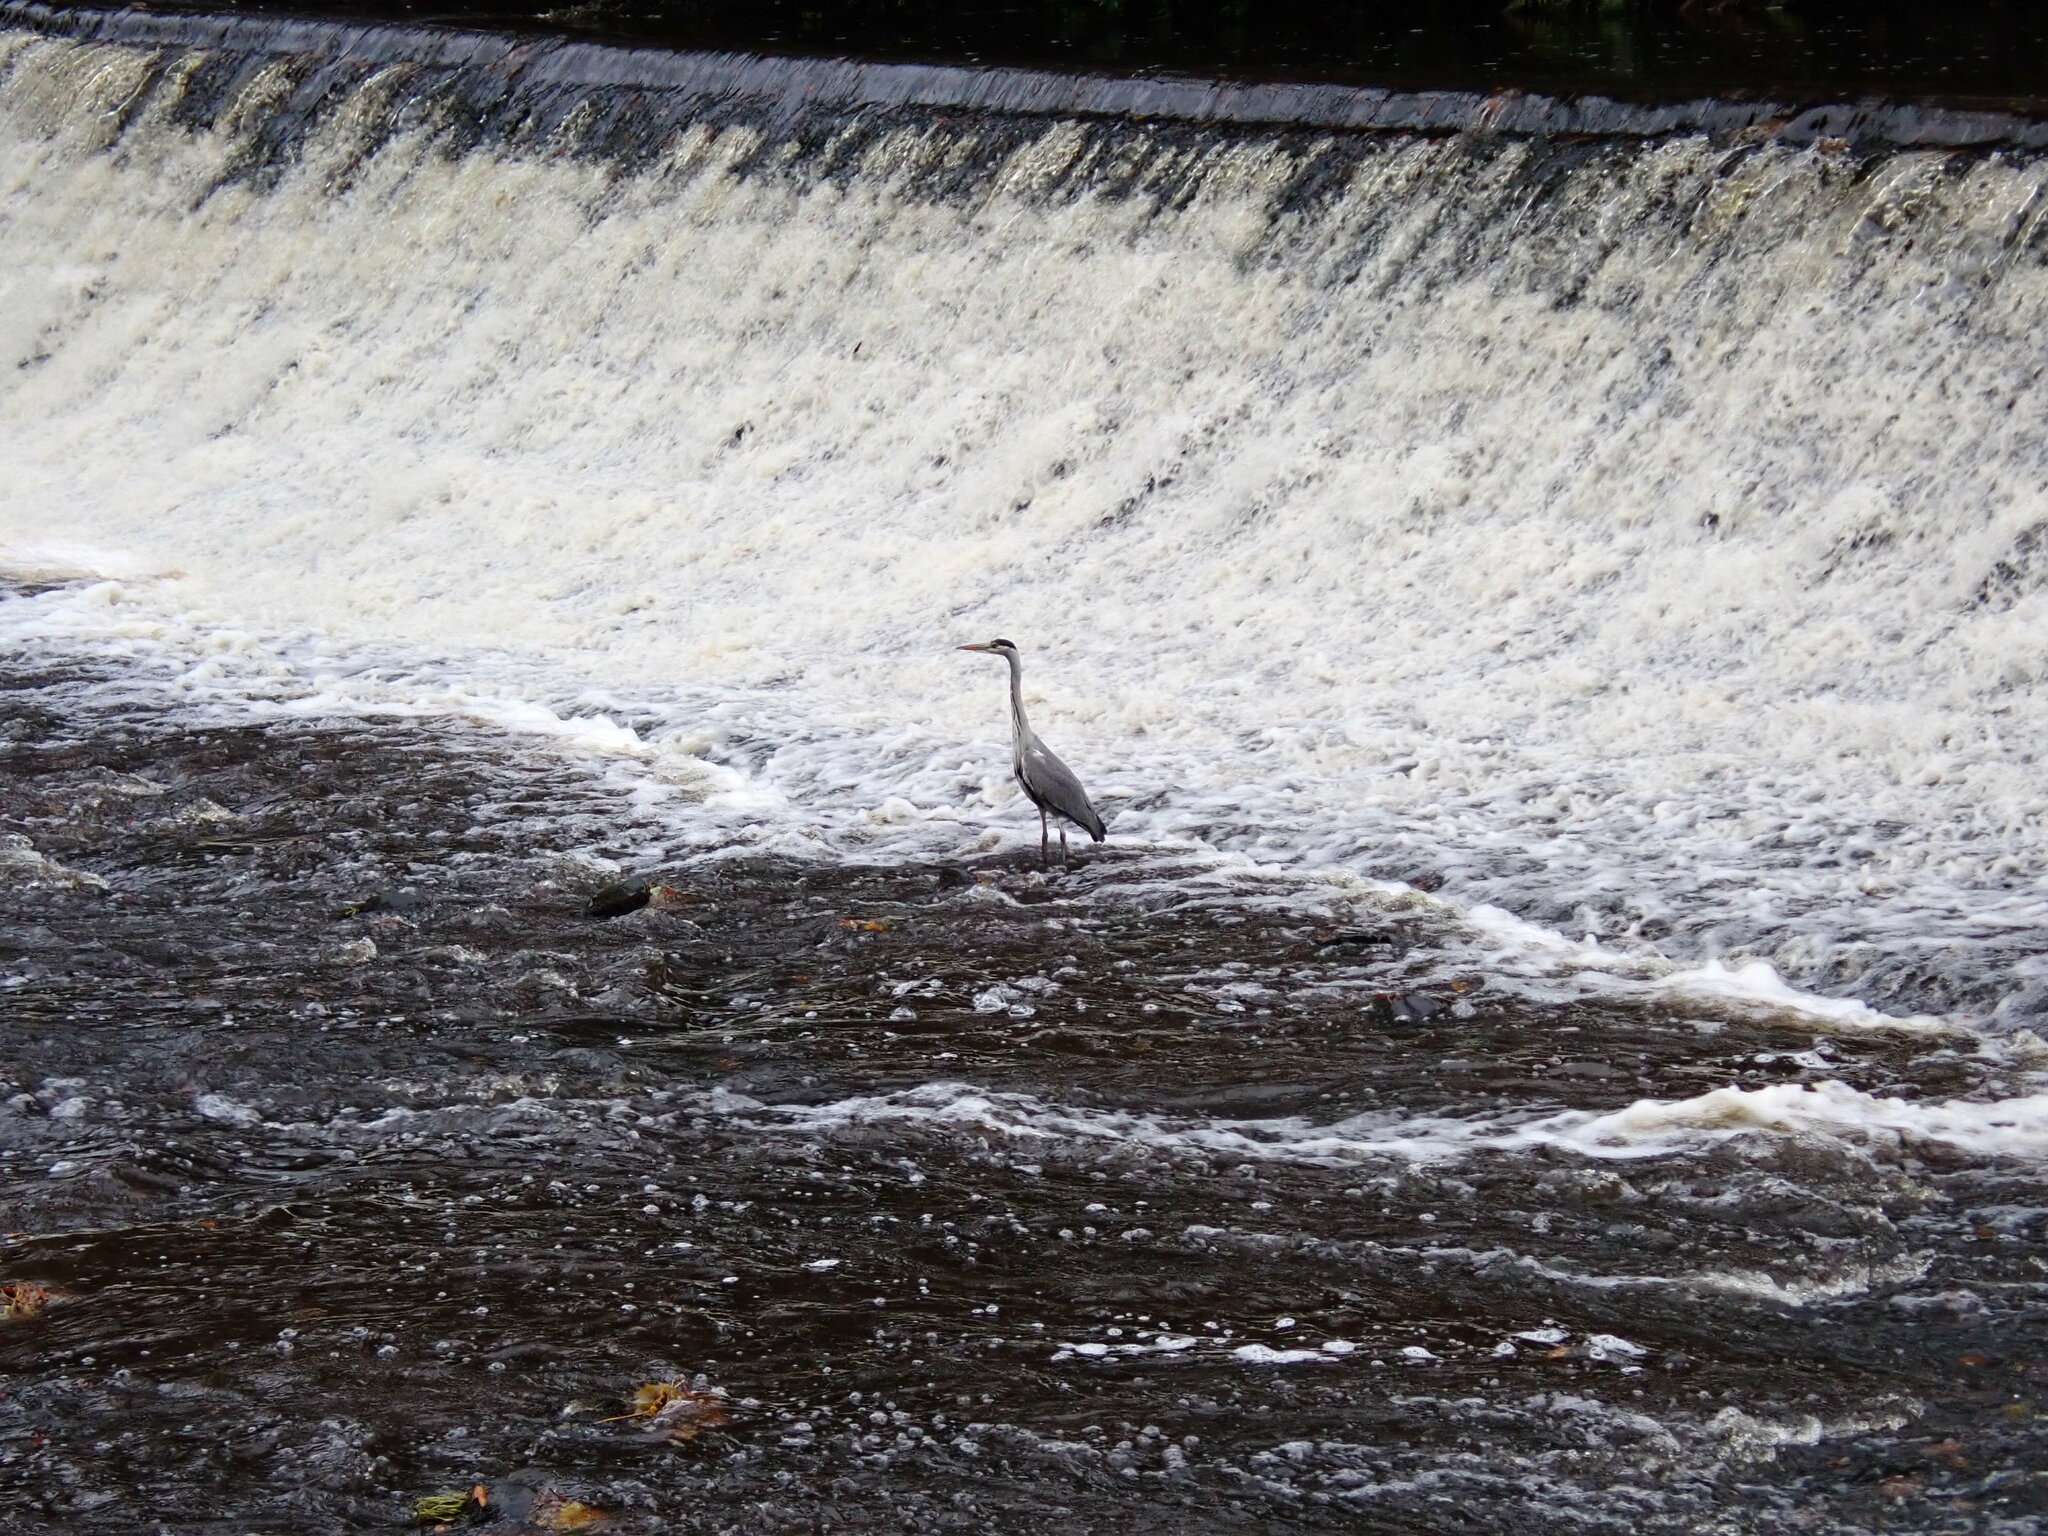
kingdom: Animalia
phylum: Chordata
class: Aves
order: Pelecaniformes
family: Ardeidae
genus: Ardea
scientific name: Ardea cinerea
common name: Grey heron
